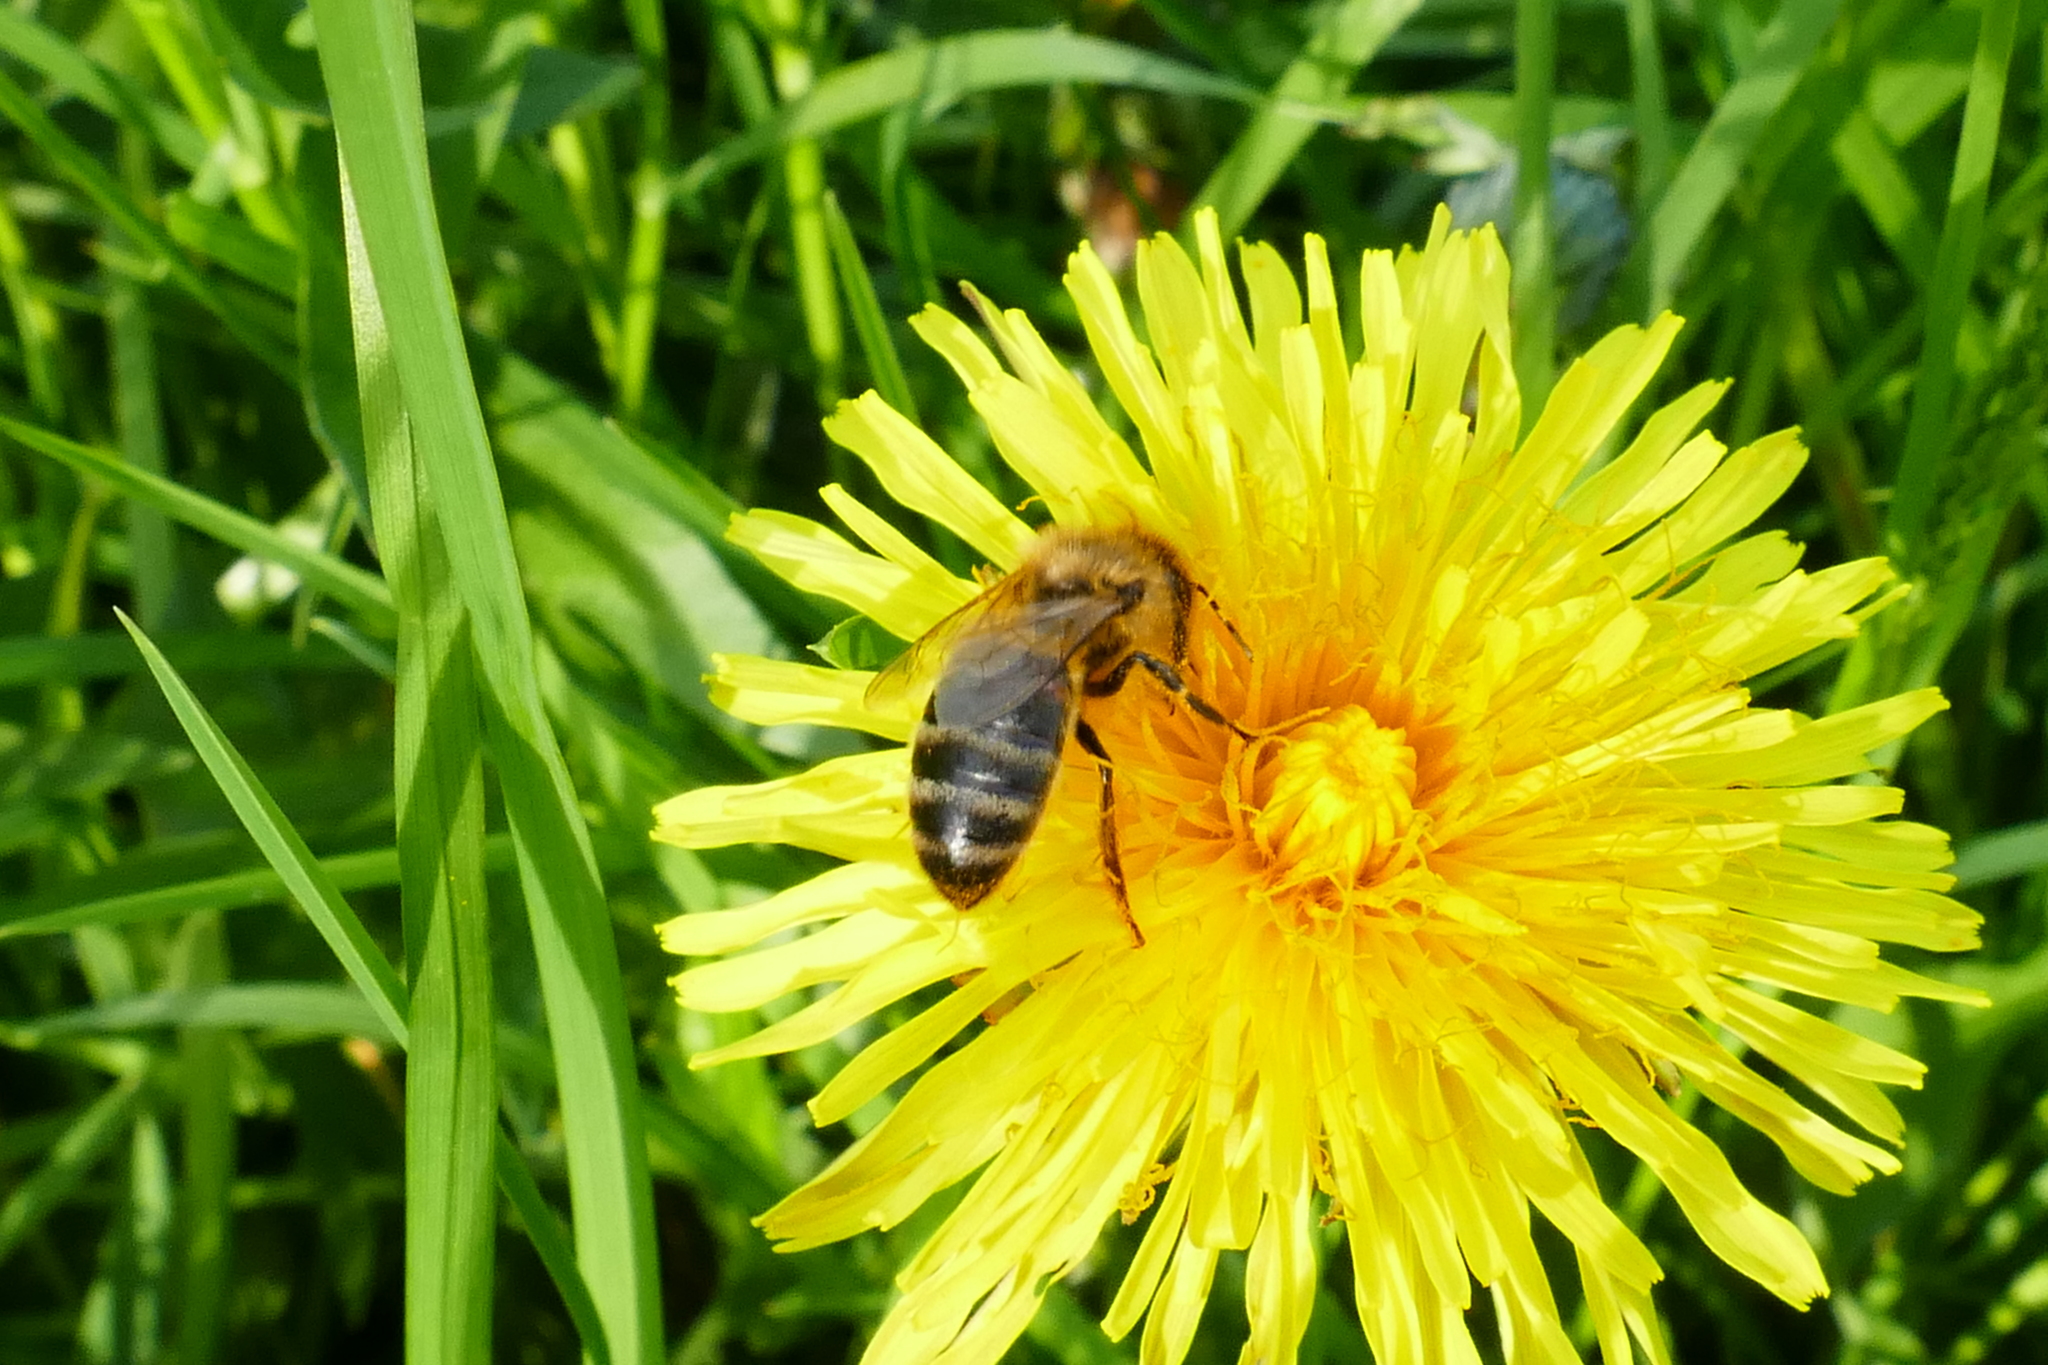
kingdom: Animalia
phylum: Arthropoda
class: Insecta
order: Hymenoptera
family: Apidae
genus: Apis
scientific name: Apis mellifera
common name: Honey bee
